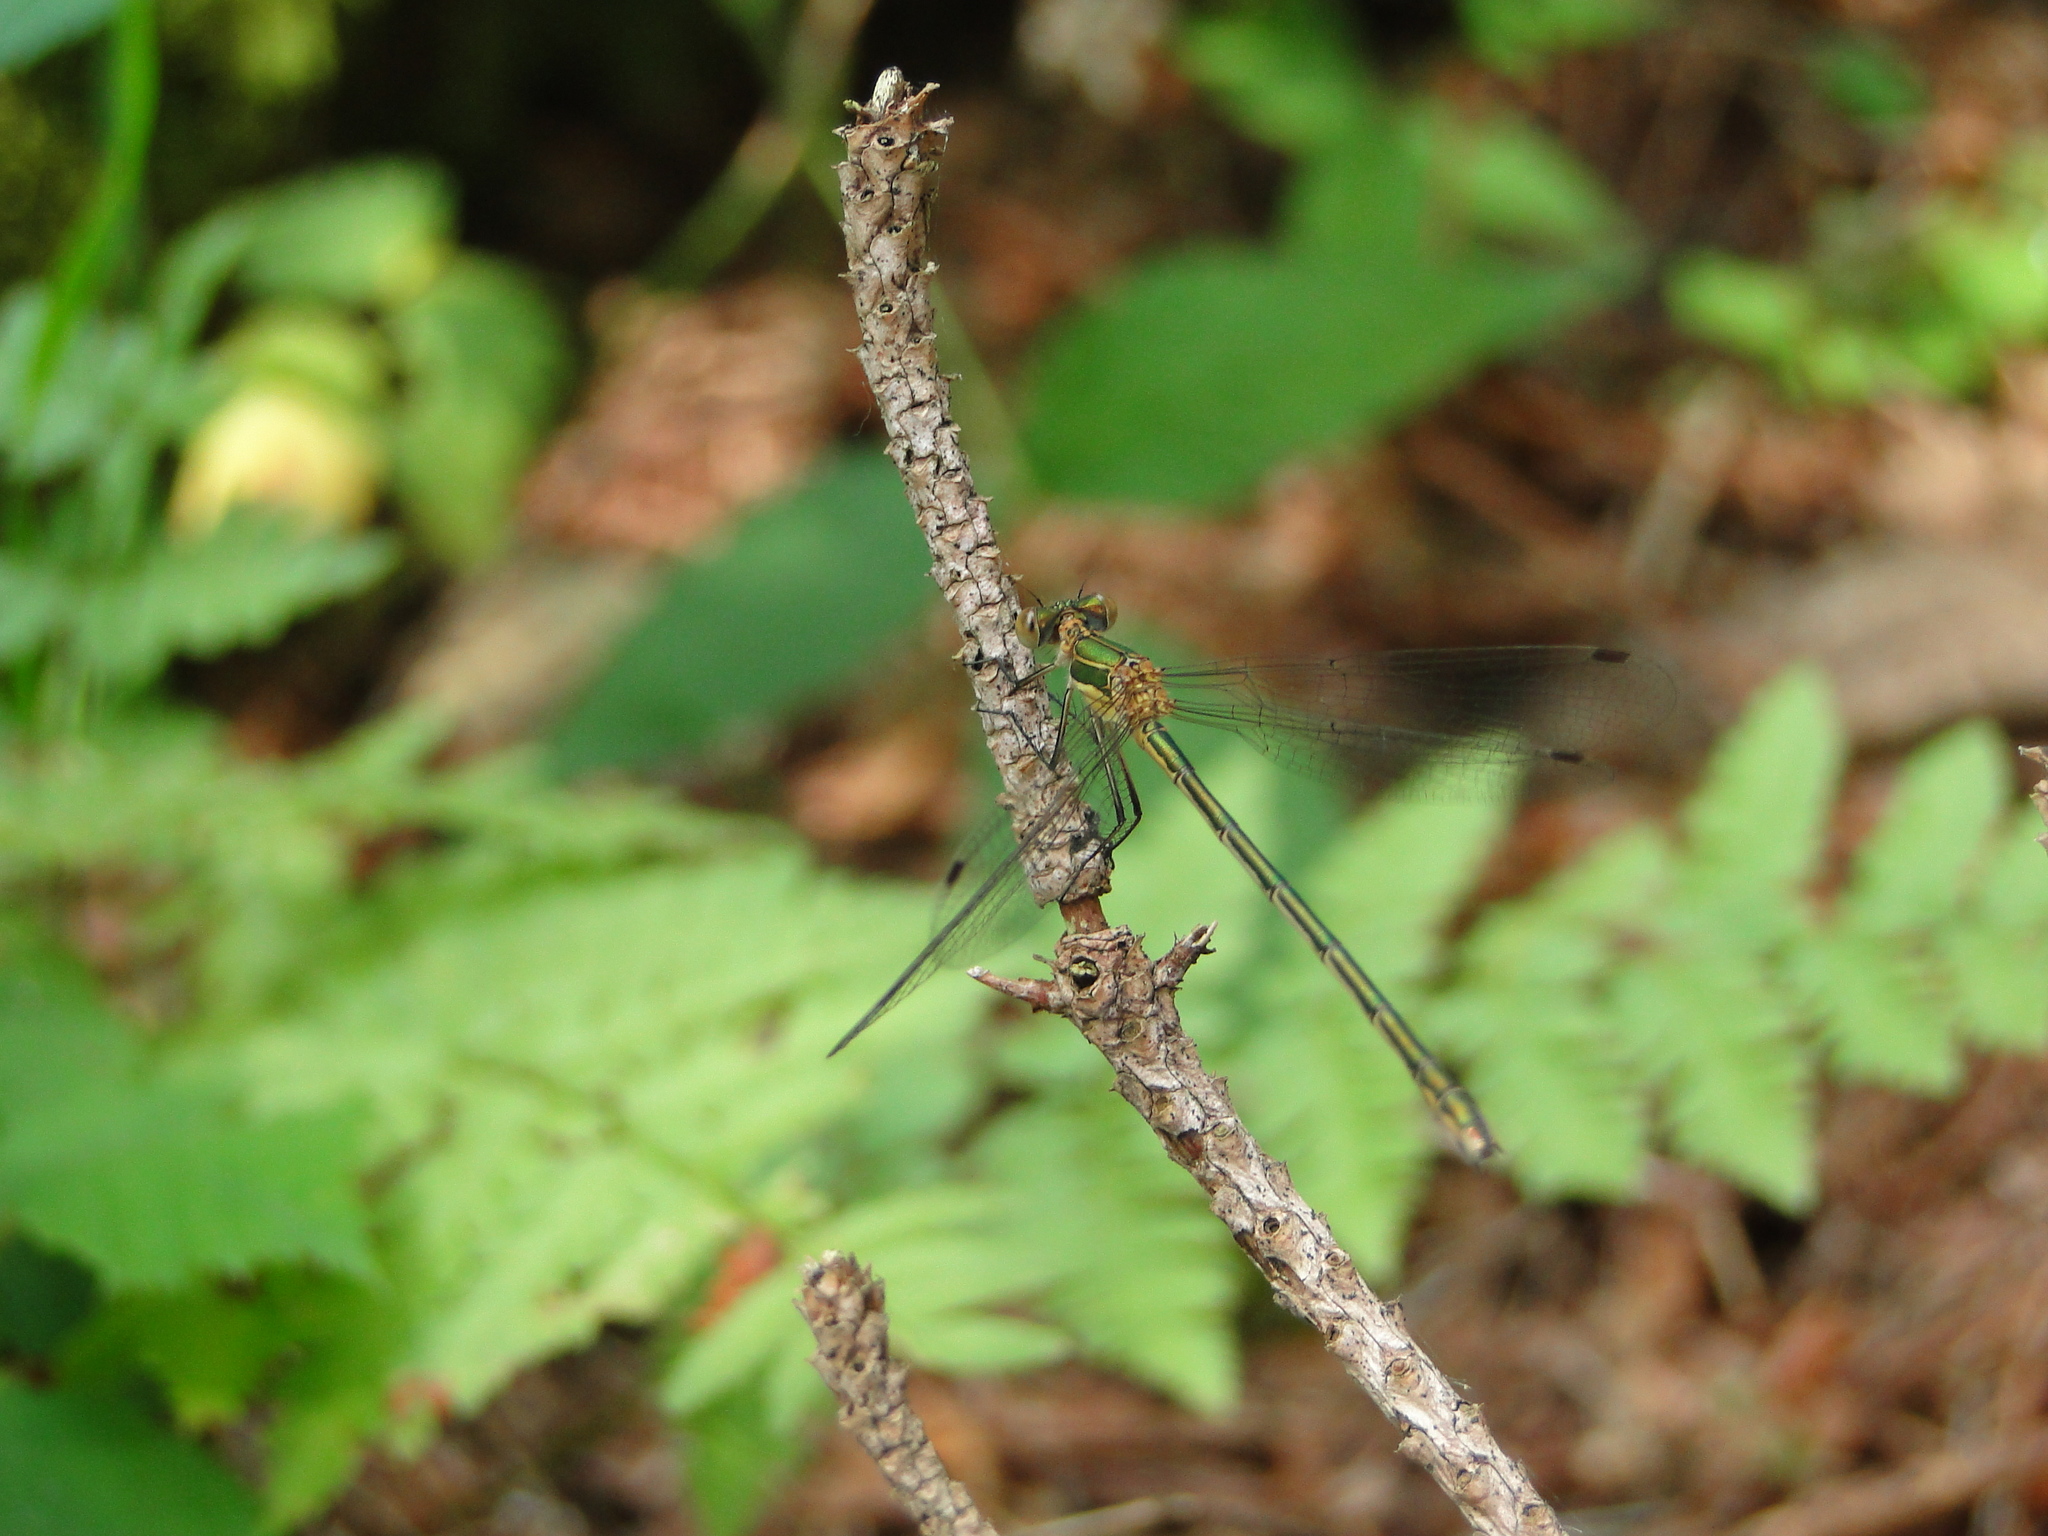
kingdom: Animalia
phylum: Arthropoda
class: Insecta
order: Odonata
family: Lestidae
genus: Lestes
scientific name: Lestes sponsa
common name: Common spreadwing
